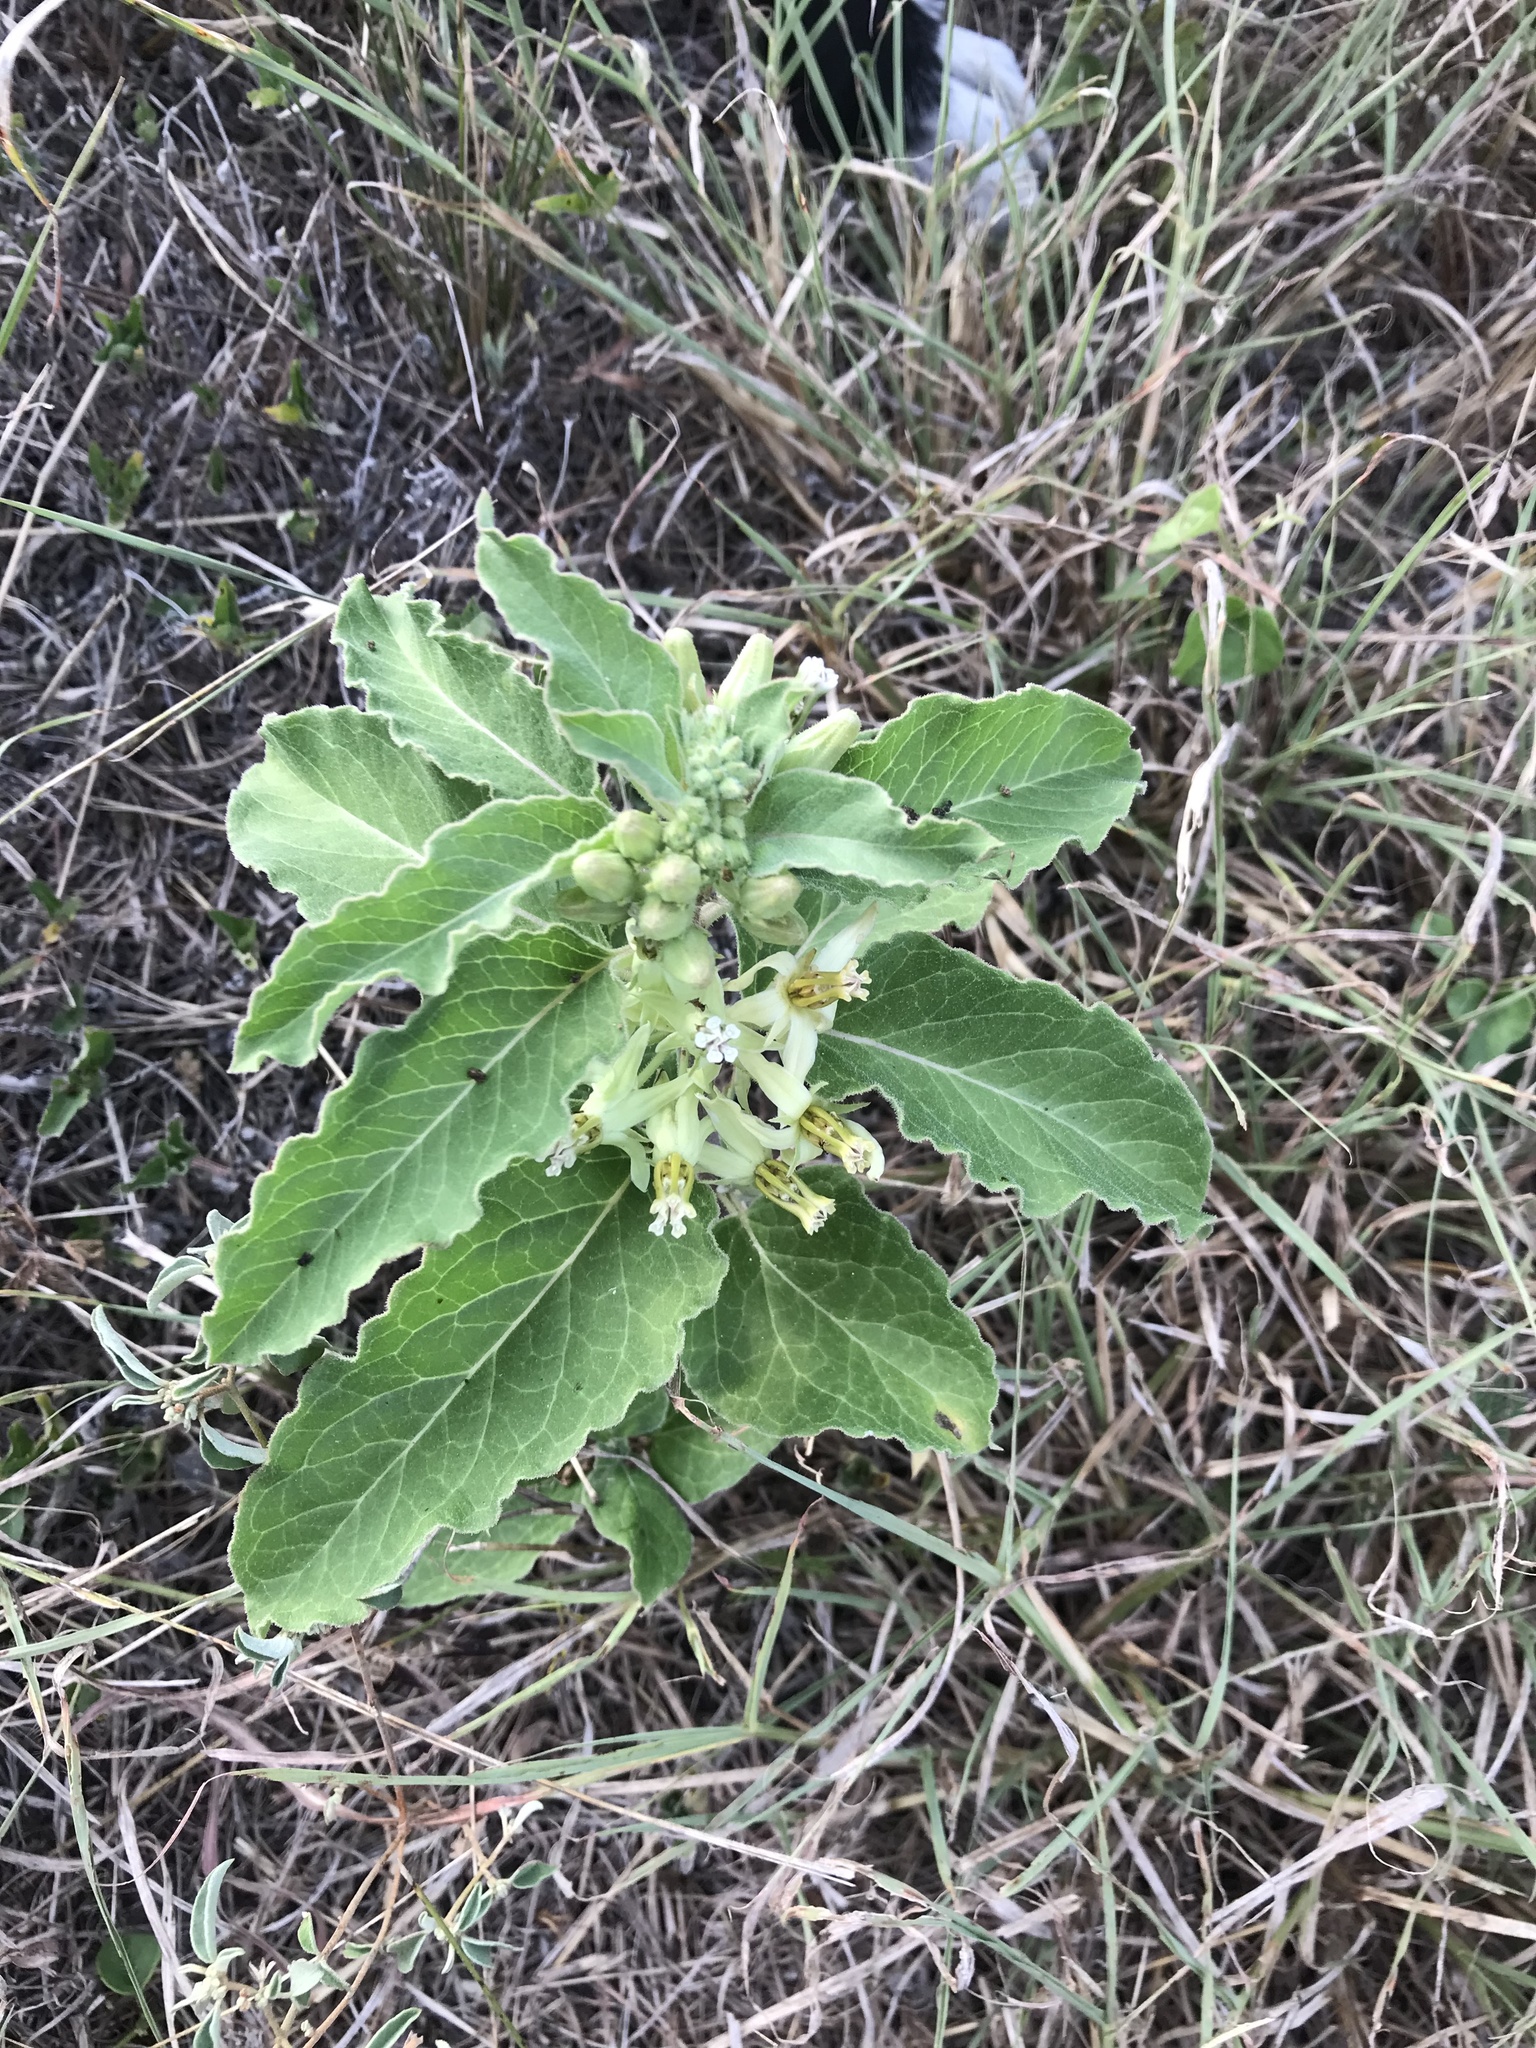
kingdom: Plantae
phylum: Tracheophyta
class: Magnoliopsida
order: Gentianales
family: Apocynaceae
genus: Asclepias
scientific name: Asclepias oenotheroides
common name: Zizotes milkweed
